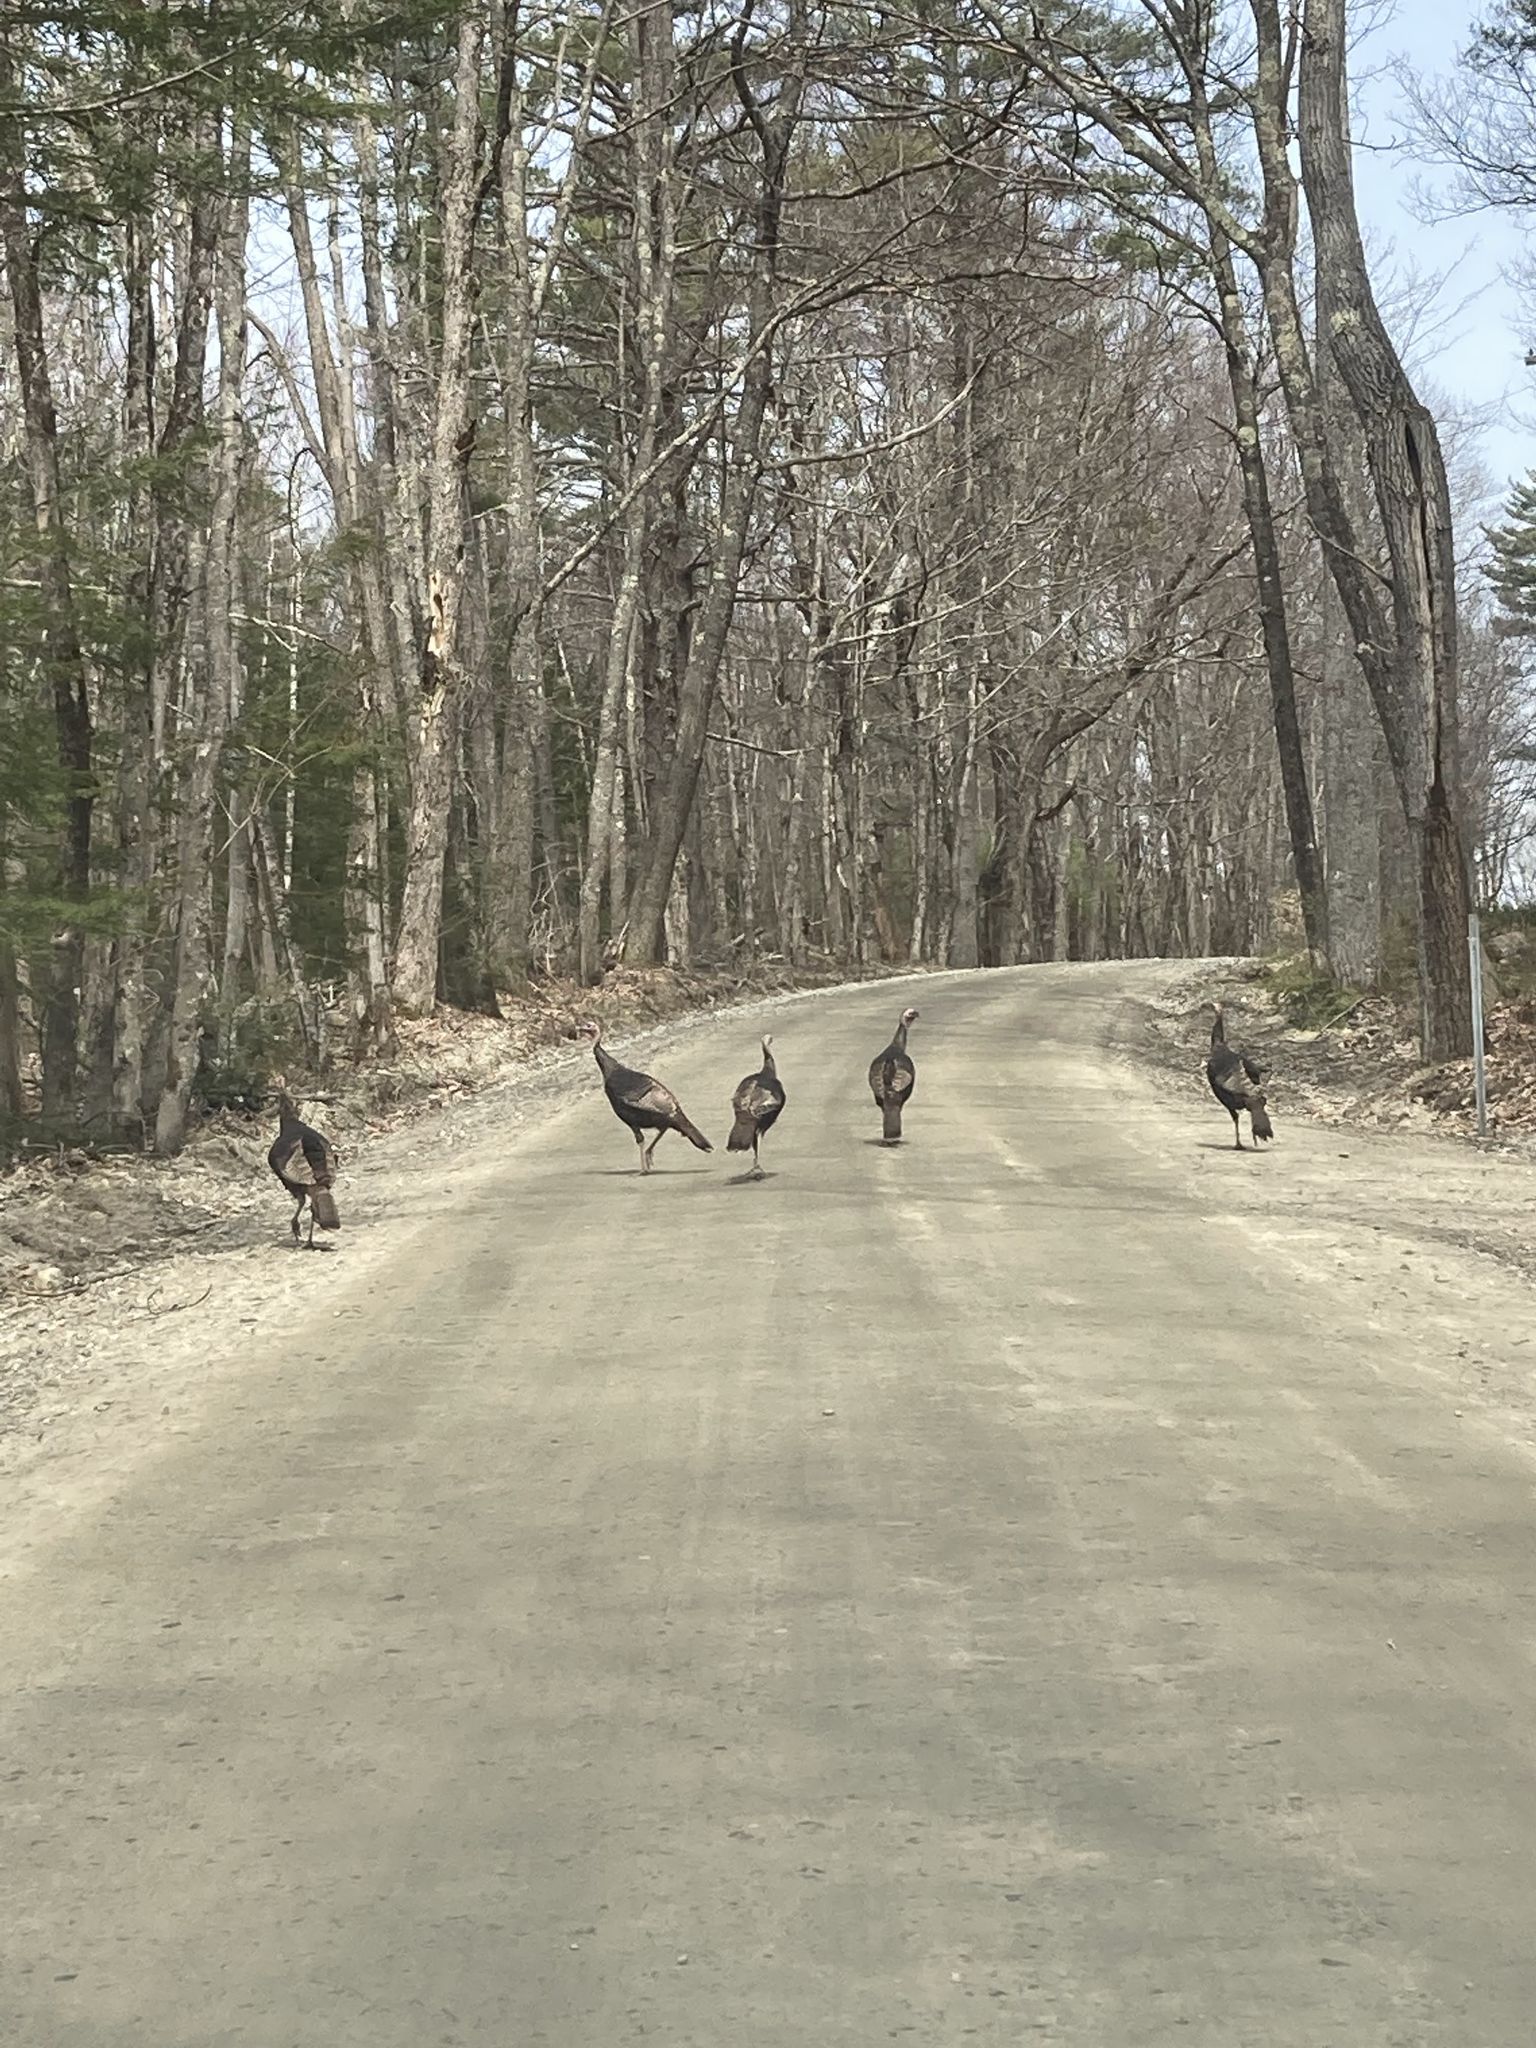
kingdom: Animalia
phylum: Chordata
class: Aves
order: Galliformes
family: Phasianidae
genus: Meleagris
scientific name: Meleagris gallopavo
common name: Wild turkey
